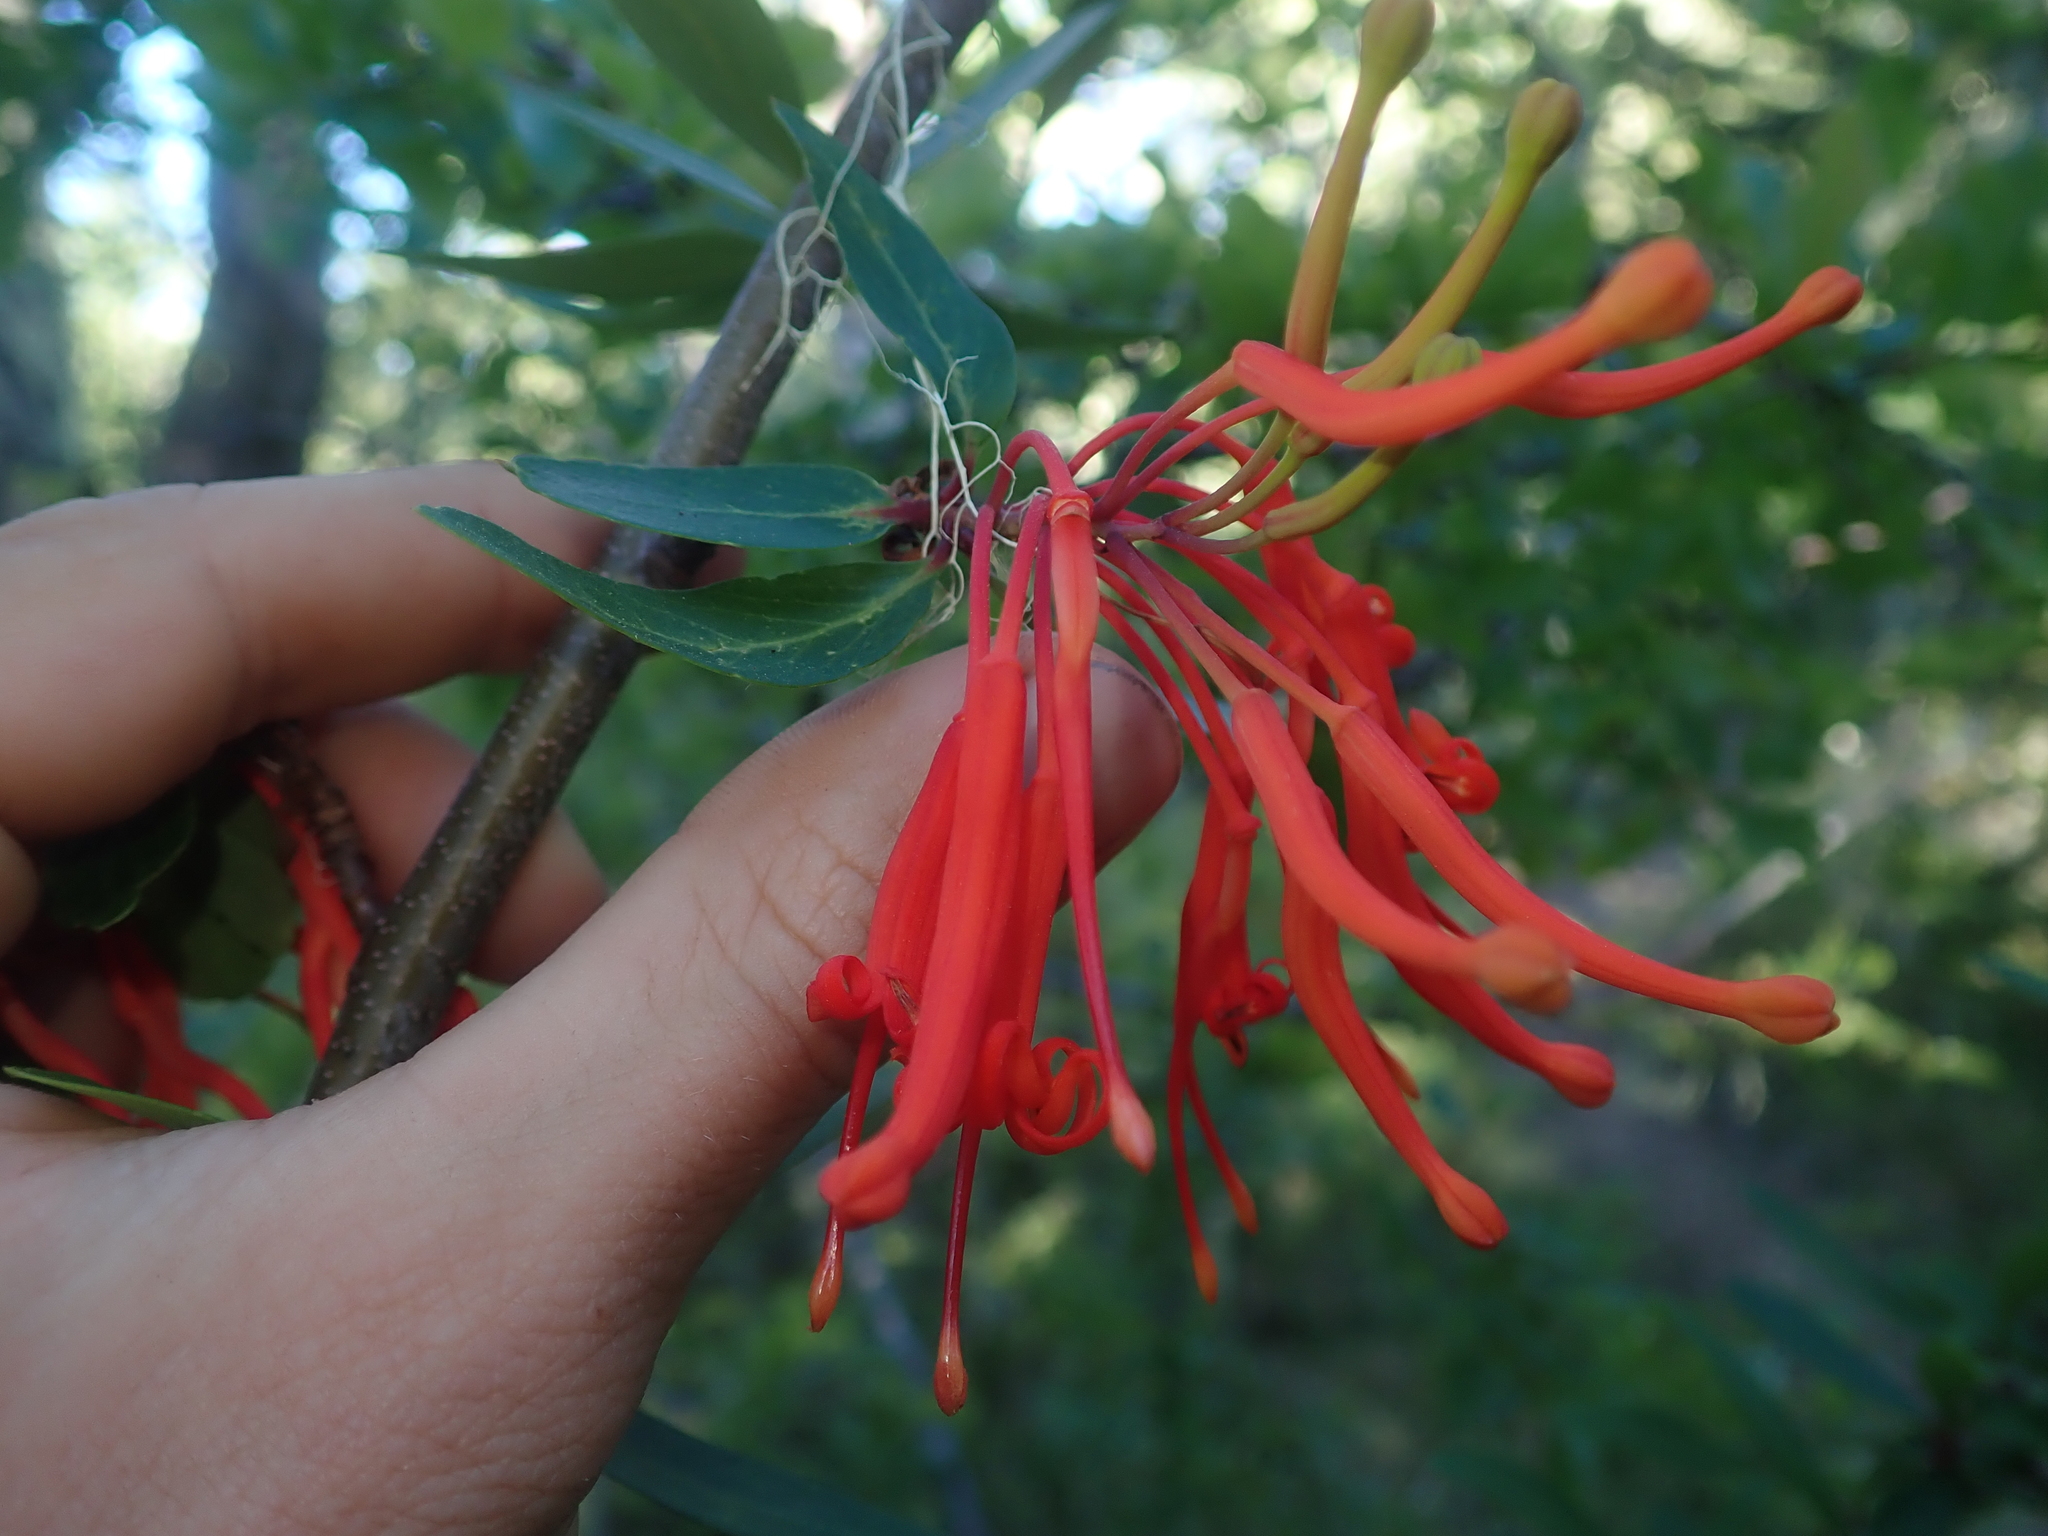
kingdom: Plantae
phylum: Tracheophyta
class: Magnoliopsida
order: Proteales
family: Proteaceae
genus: Embothrium
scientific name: Embothrium coccineum
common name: Chilean firebush
